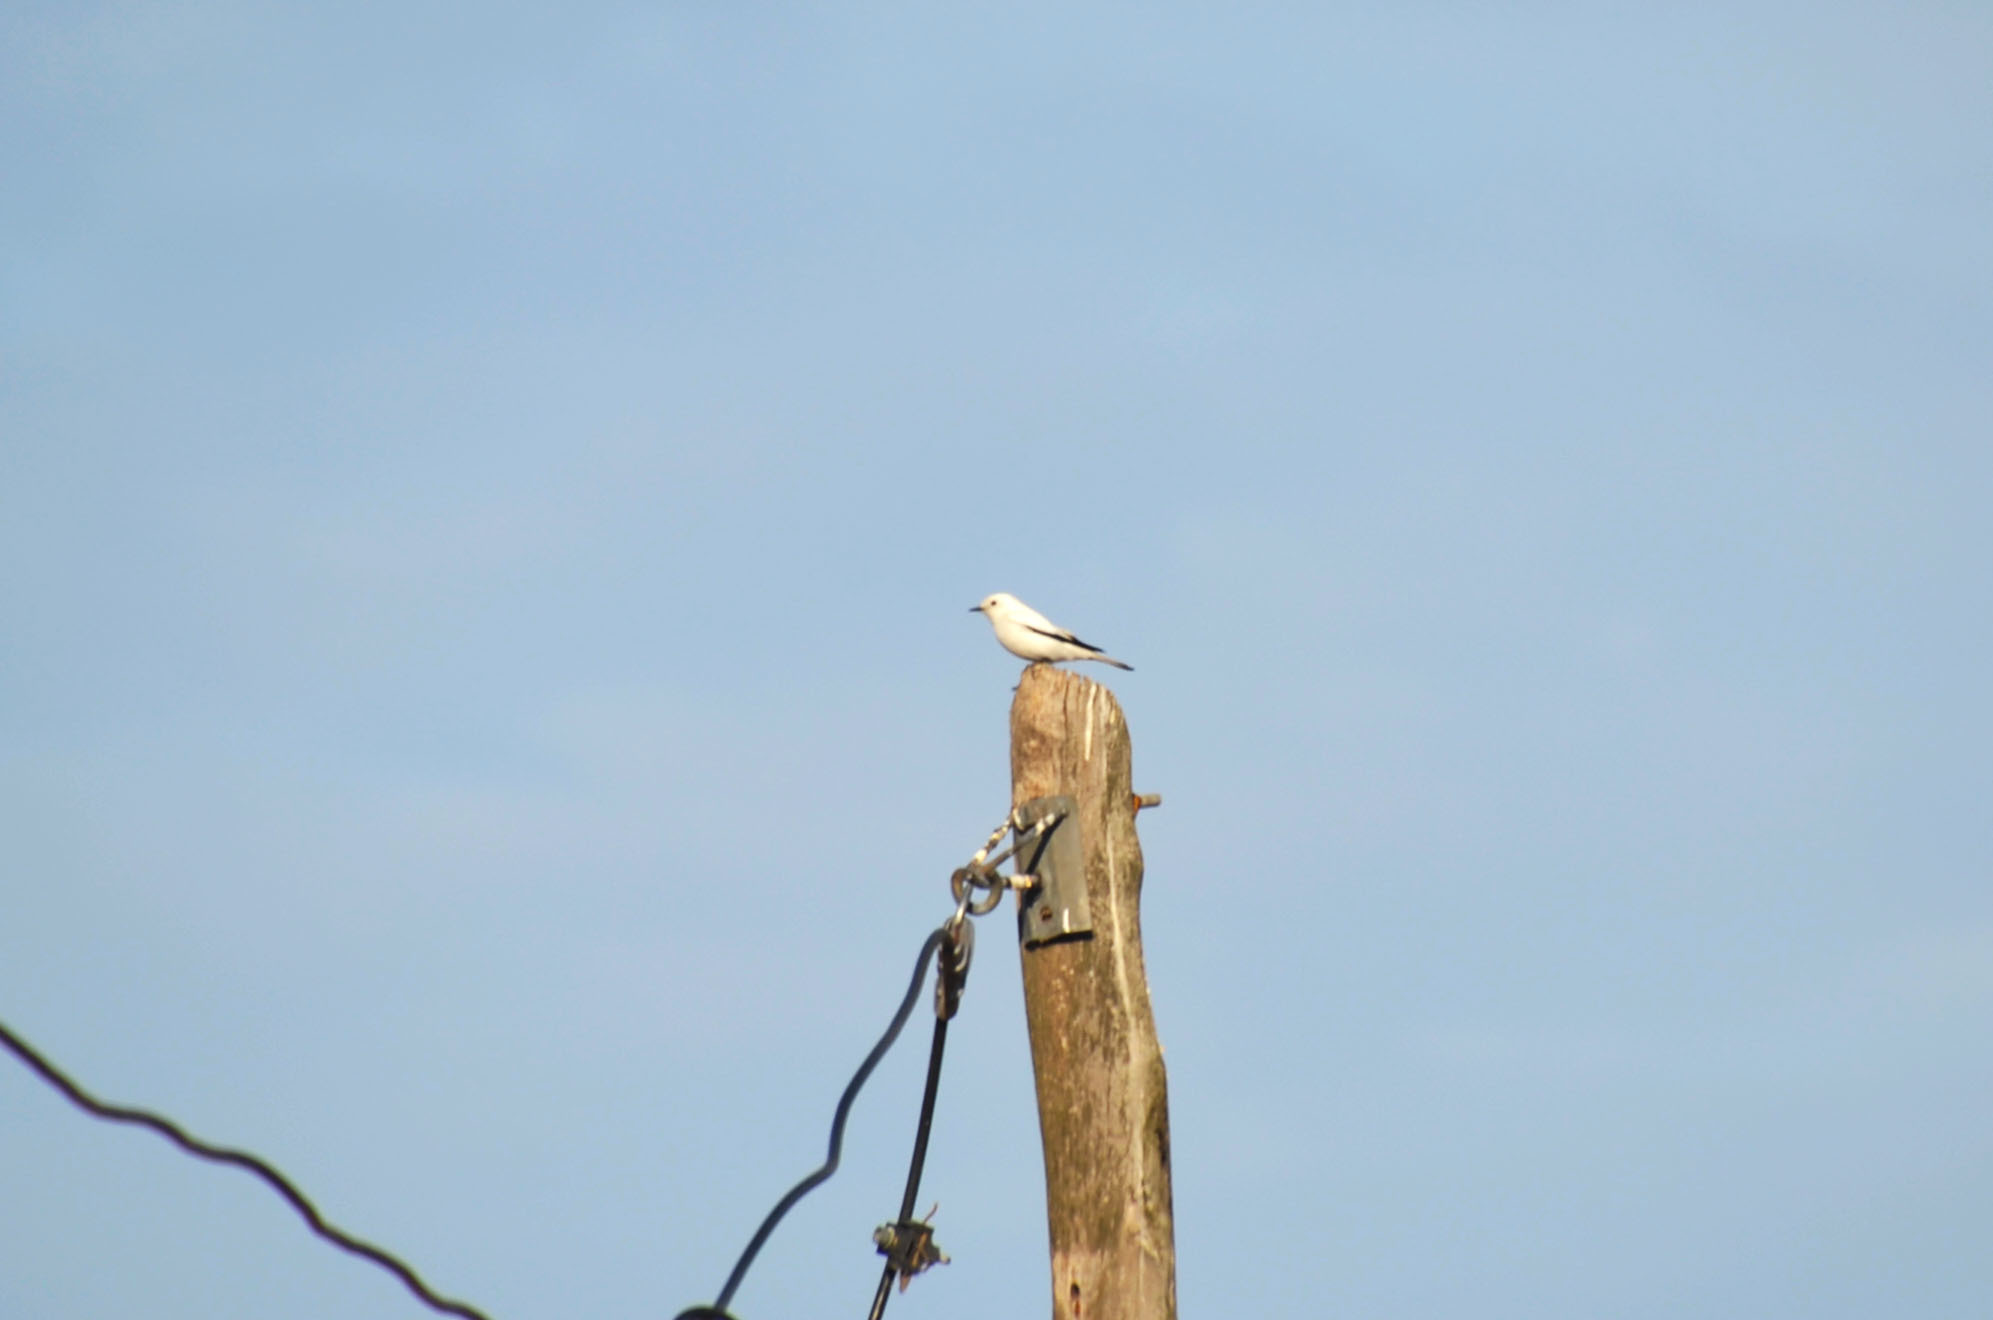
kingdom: Animalia
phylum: Chordata
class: Aves
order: Passeriformes
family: Tyrannidae
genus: Xolmis
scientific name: Xolmis irupero
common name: White monjita
